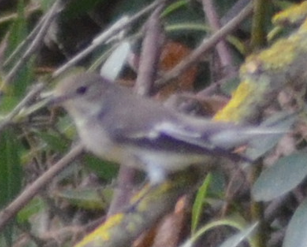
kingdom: Animalia
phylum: Chordata
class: Aves
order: Passeriformes
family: Muscicapidae
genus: Ficedula
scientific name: Ficedula hypoleuca
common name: European pied flycatcher
